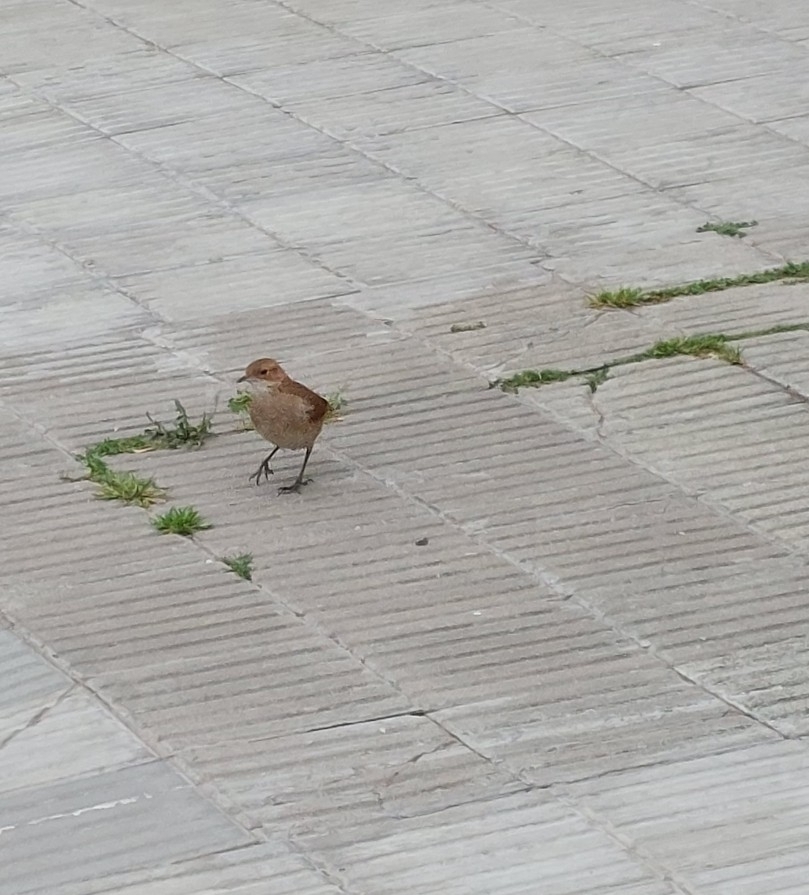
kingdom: Animalia
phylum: Chordata
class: Aves
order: Passeriformes
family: Furnariidae
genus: Furnarius
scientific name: Furnarius rufus
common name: Rufous hornero
